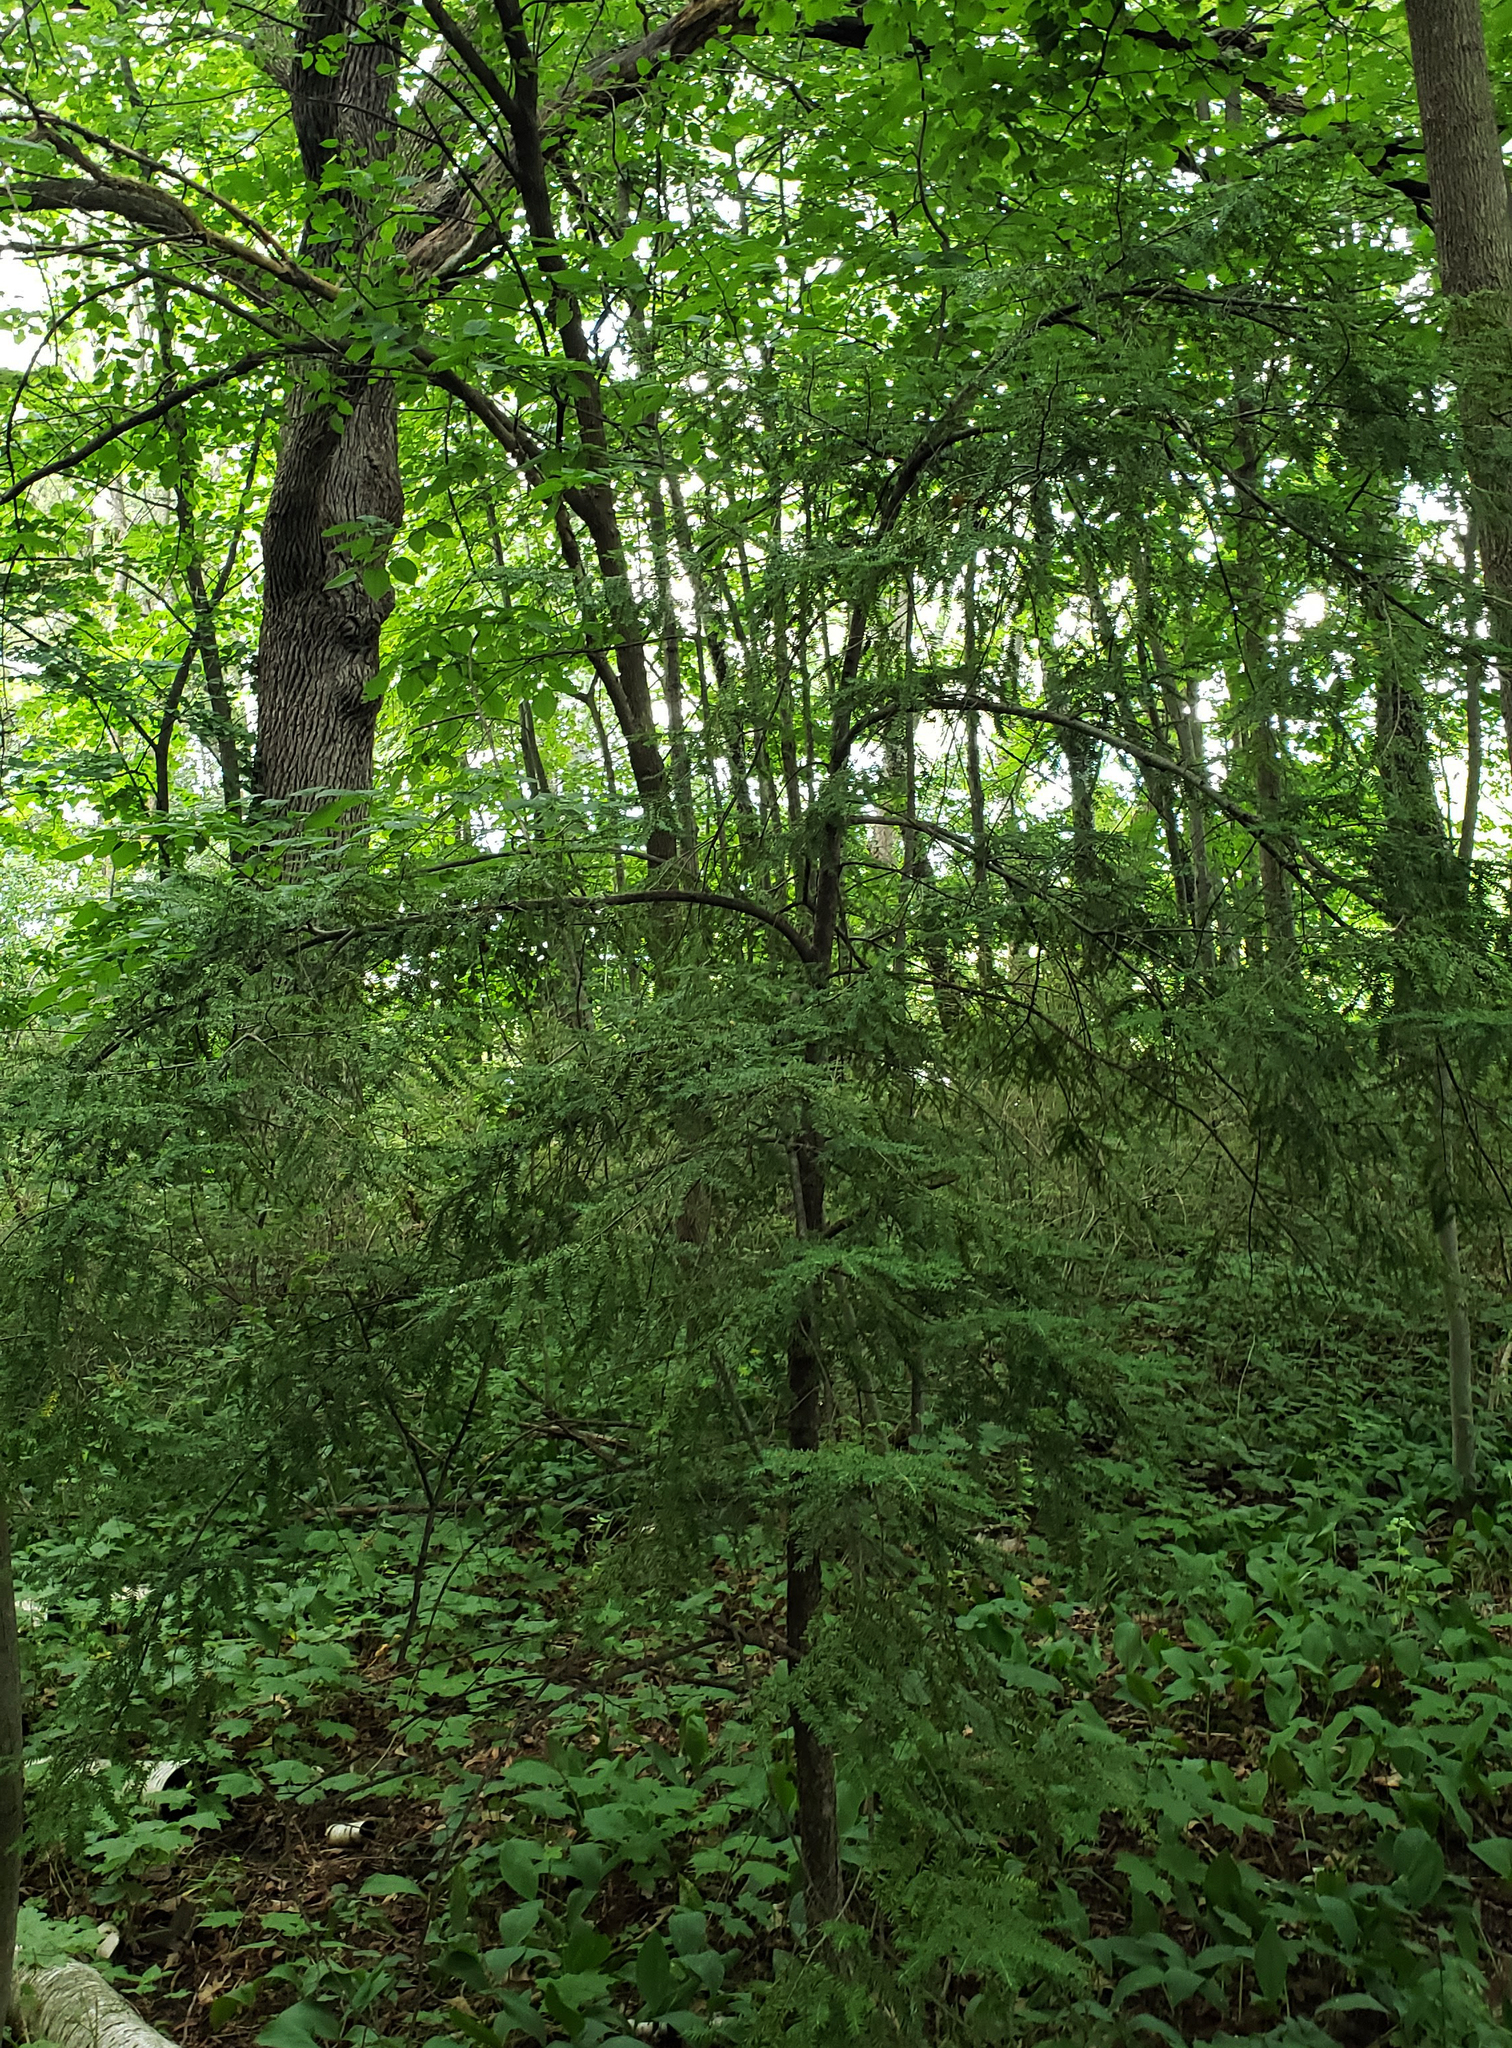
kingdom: Plantae
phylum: Tracheophyta
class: Pinopsida
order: Pinales
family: Pinaceae
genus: Tsuga
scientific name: Tsuga canadensis
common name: Eastern hemlock
